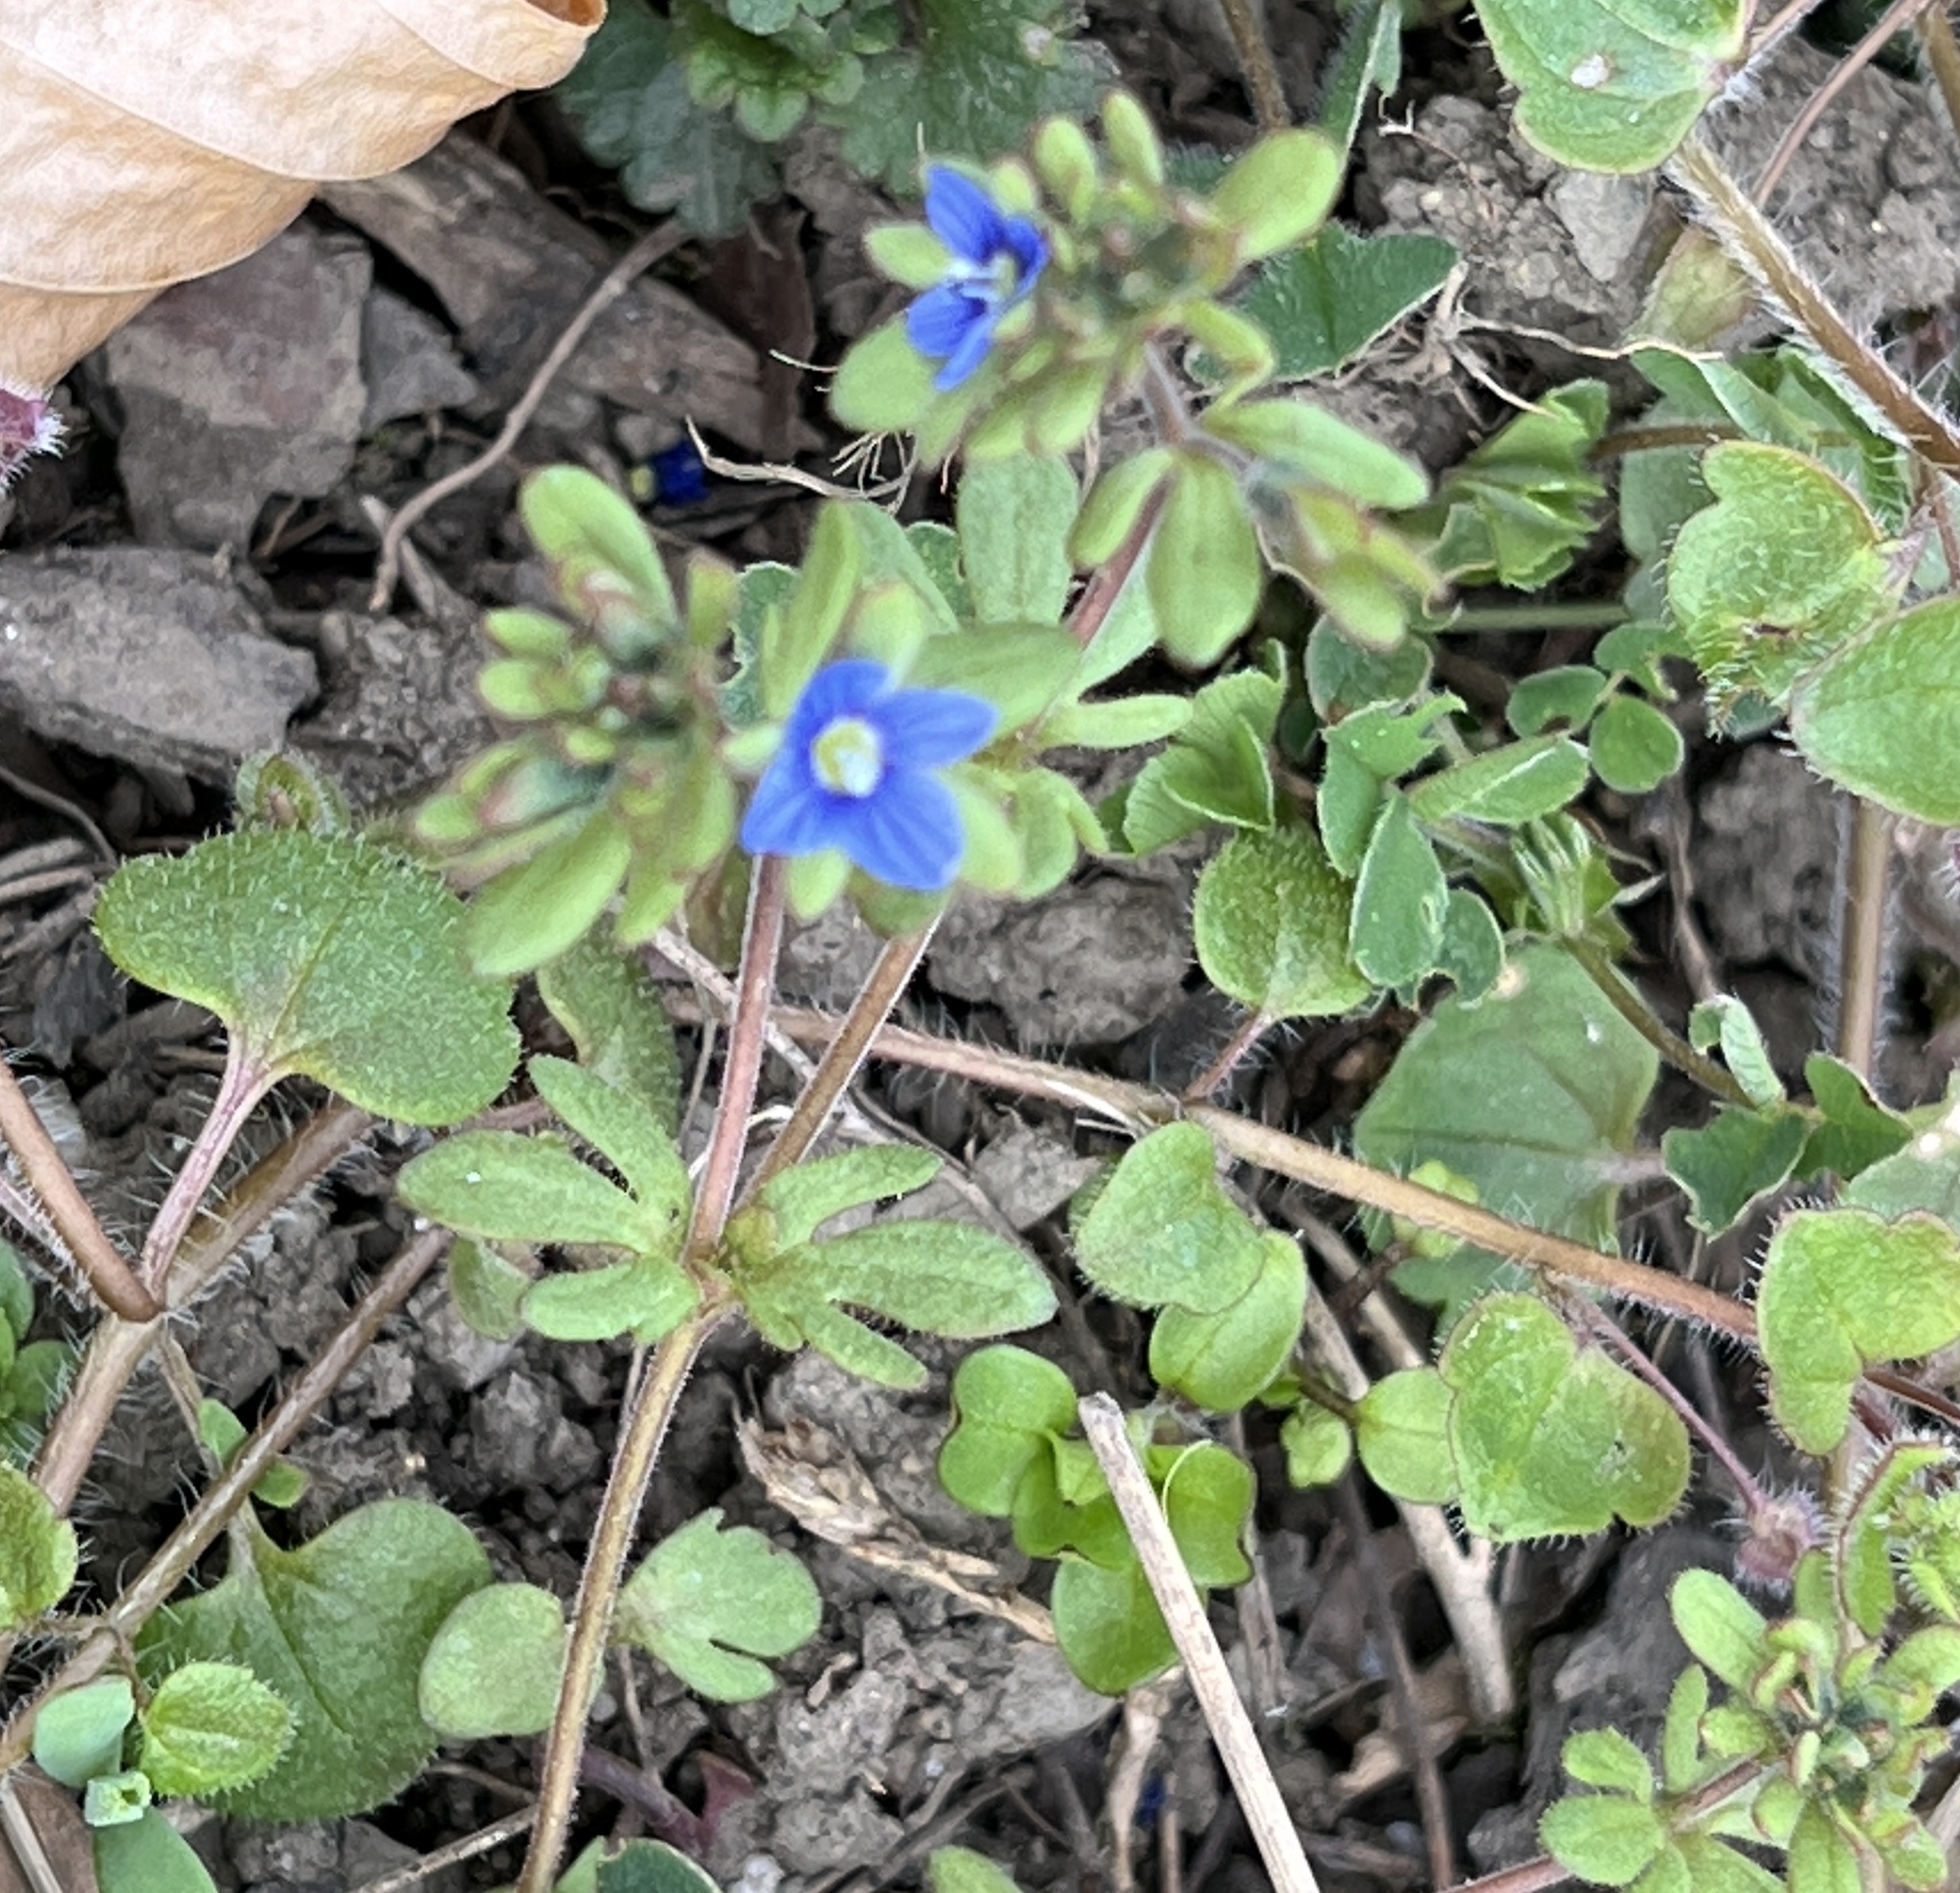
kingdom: Plantae
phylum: Tracheophyta
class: Magnoliopsida
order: Lamiales
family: Plantaginaceae
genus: Veronica
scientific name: Veronica triphyllos
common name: Fingered speedwell
